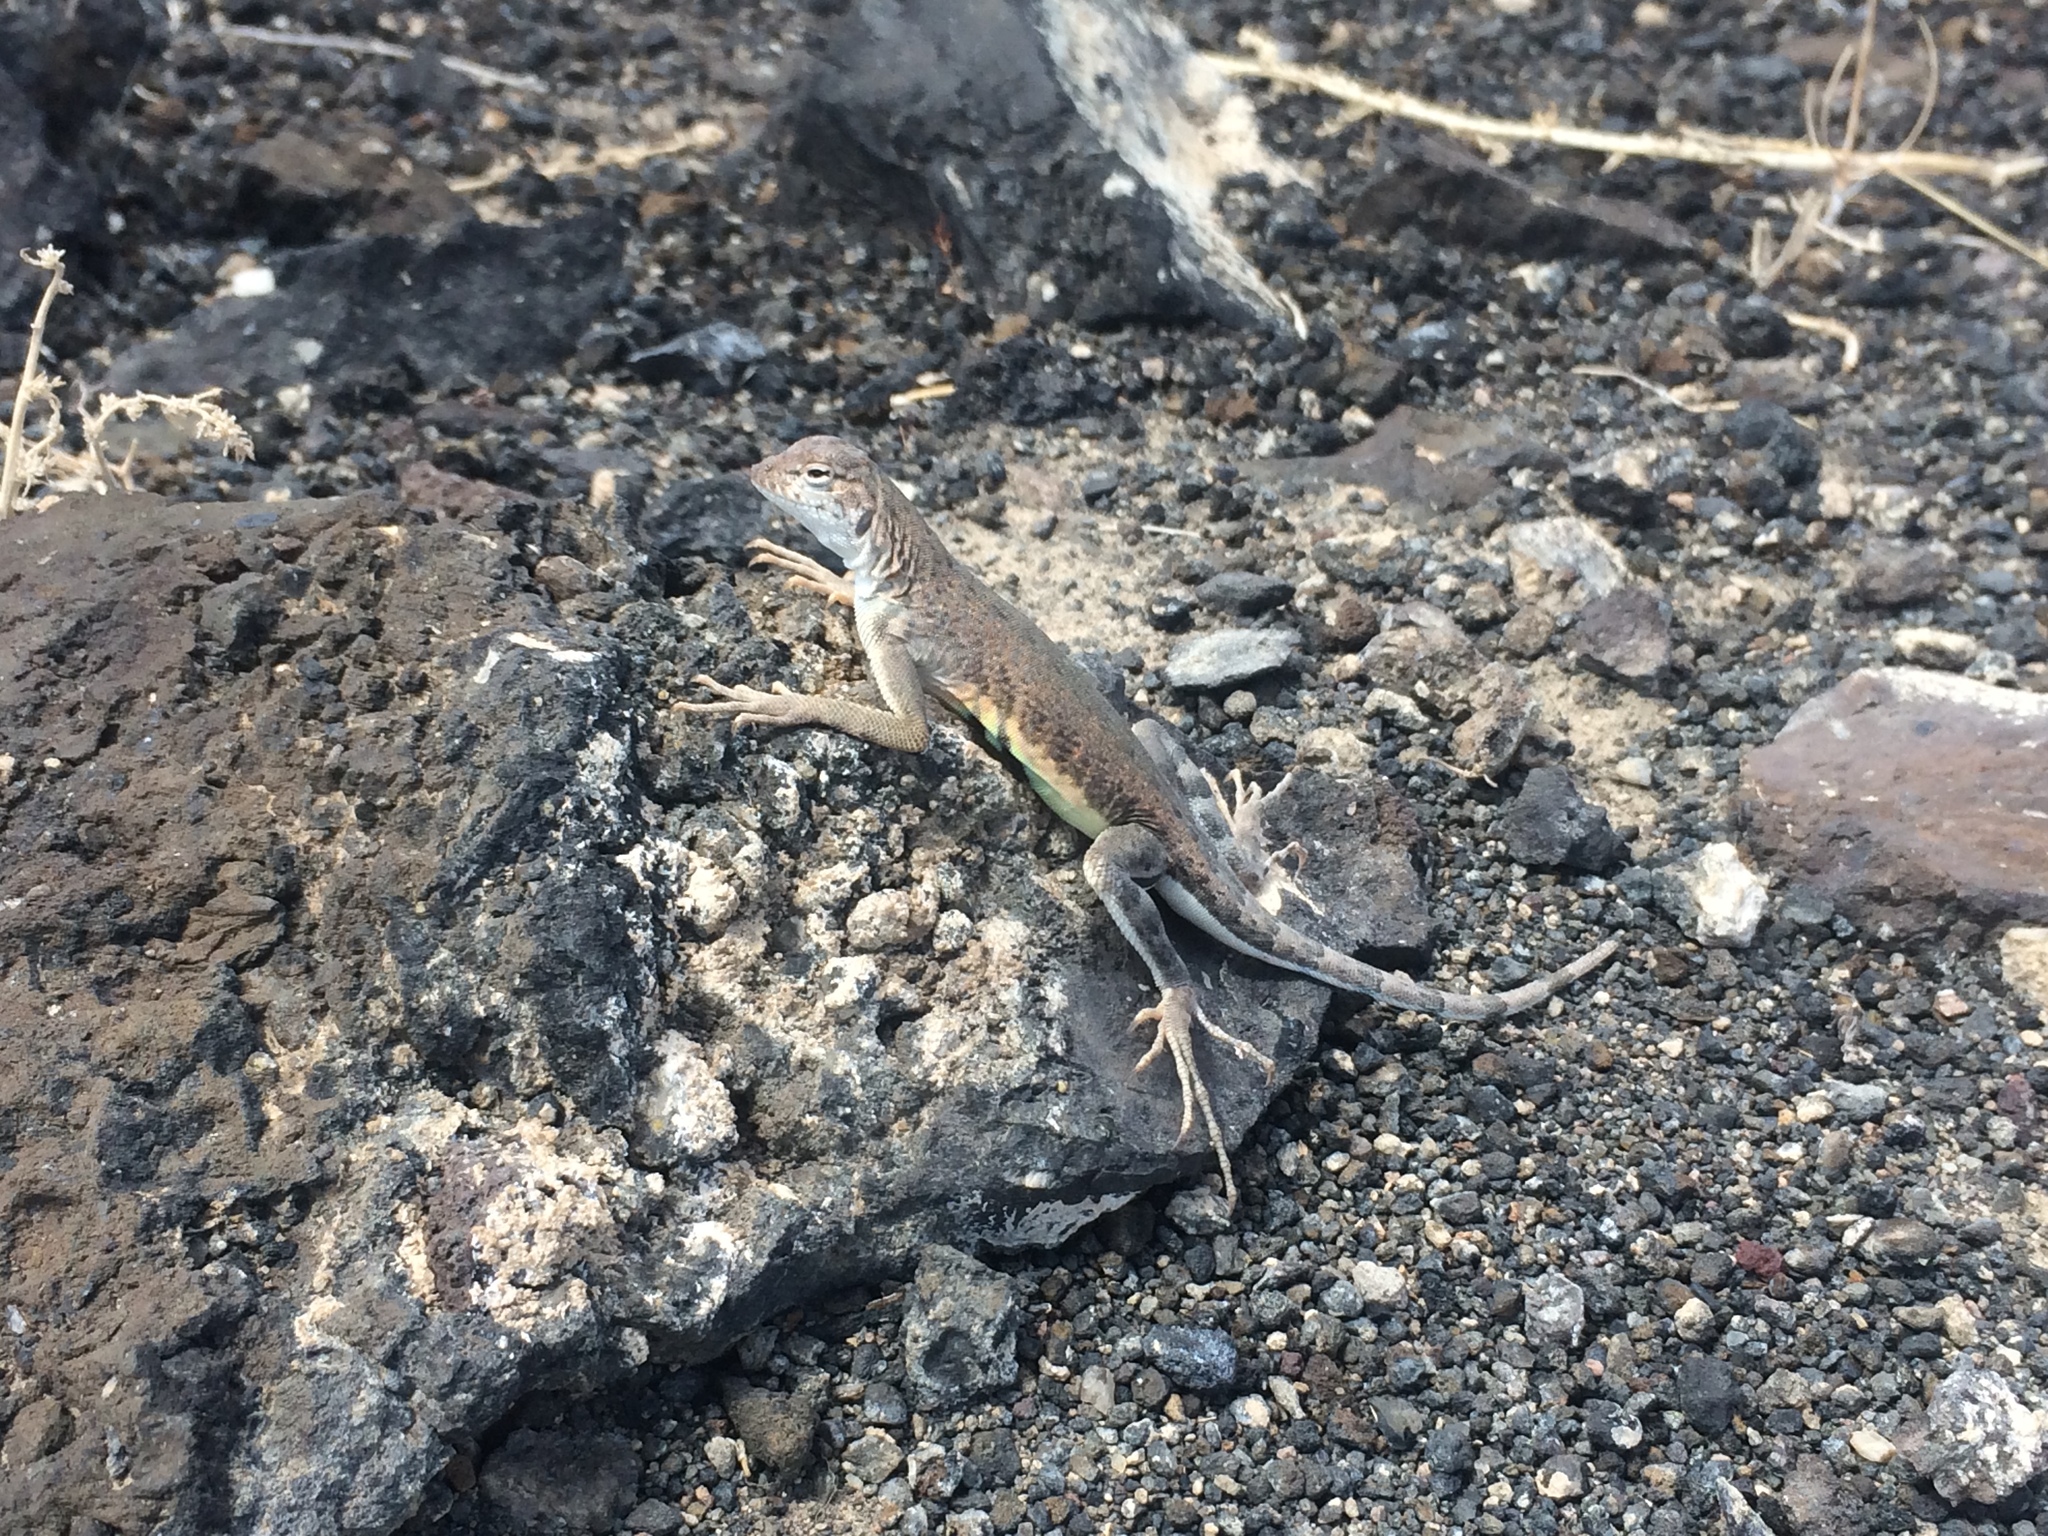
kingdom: Animalia
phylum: Chordata
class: Squamata
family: Phrynosomatidae
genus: Callisaurus
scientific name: Callisaurus draconoides
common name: Zebra-tailed lizard
